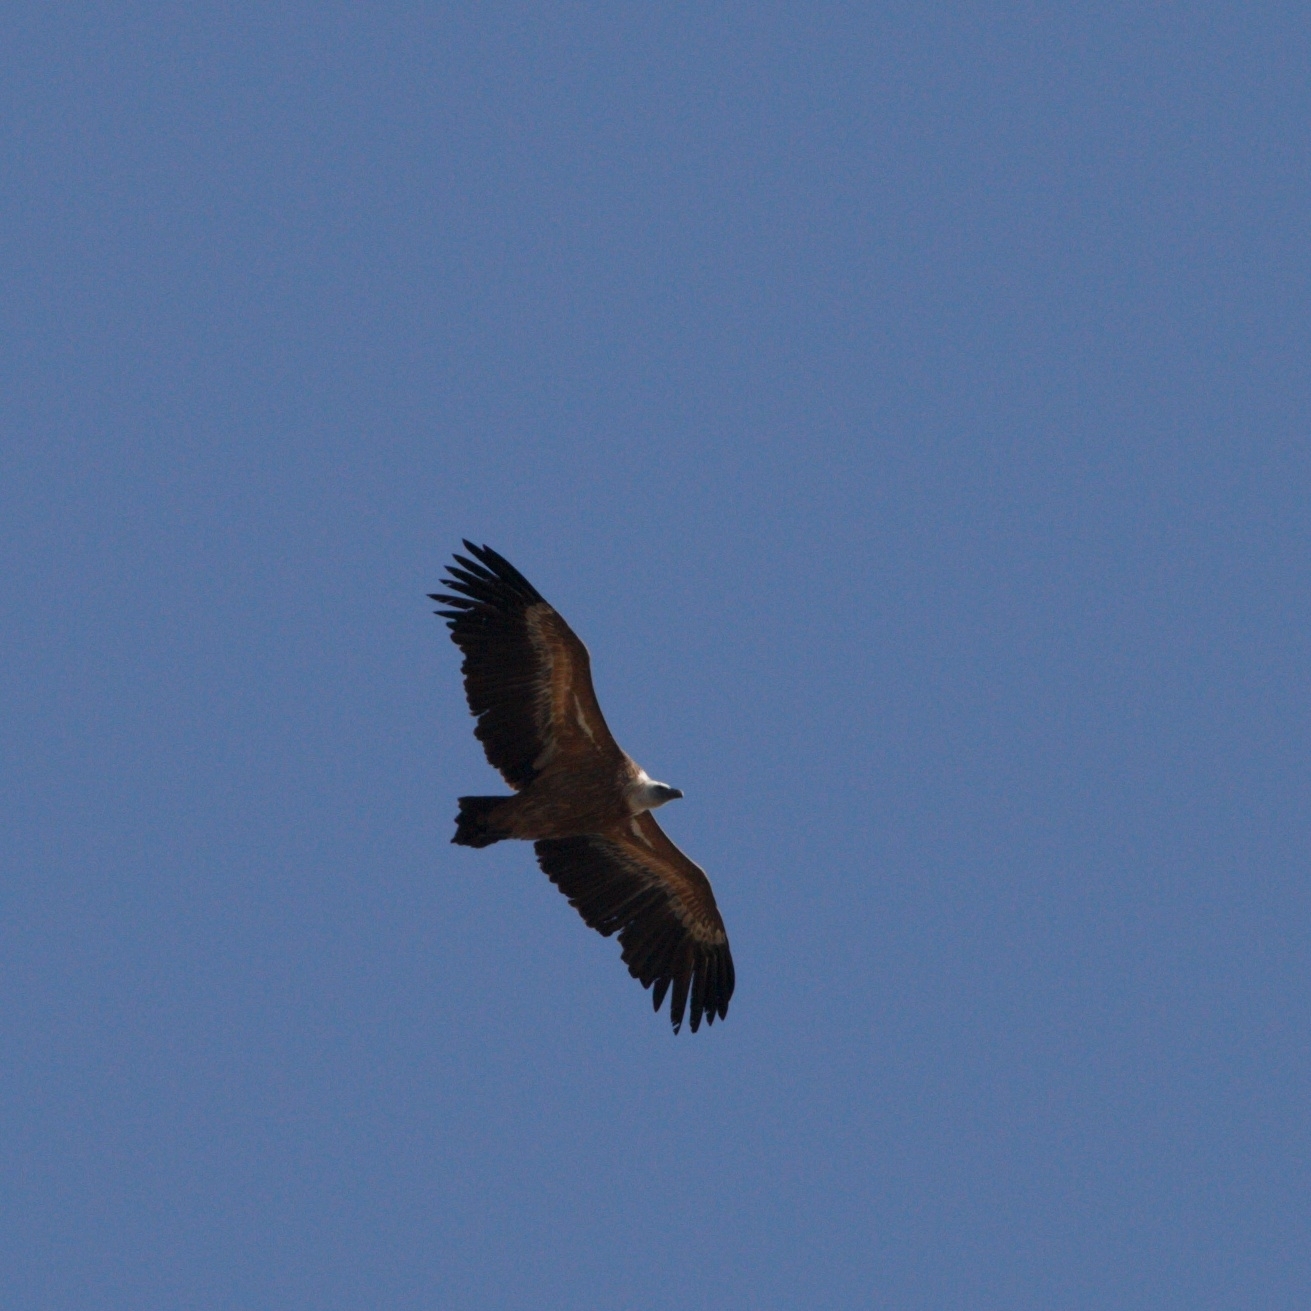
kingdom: Animalia
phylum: Chordata
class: Aves
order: Accipitriformes
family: Accipitridae
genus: Gyps
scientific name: Gyps fulvus
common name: Griffon vulture
